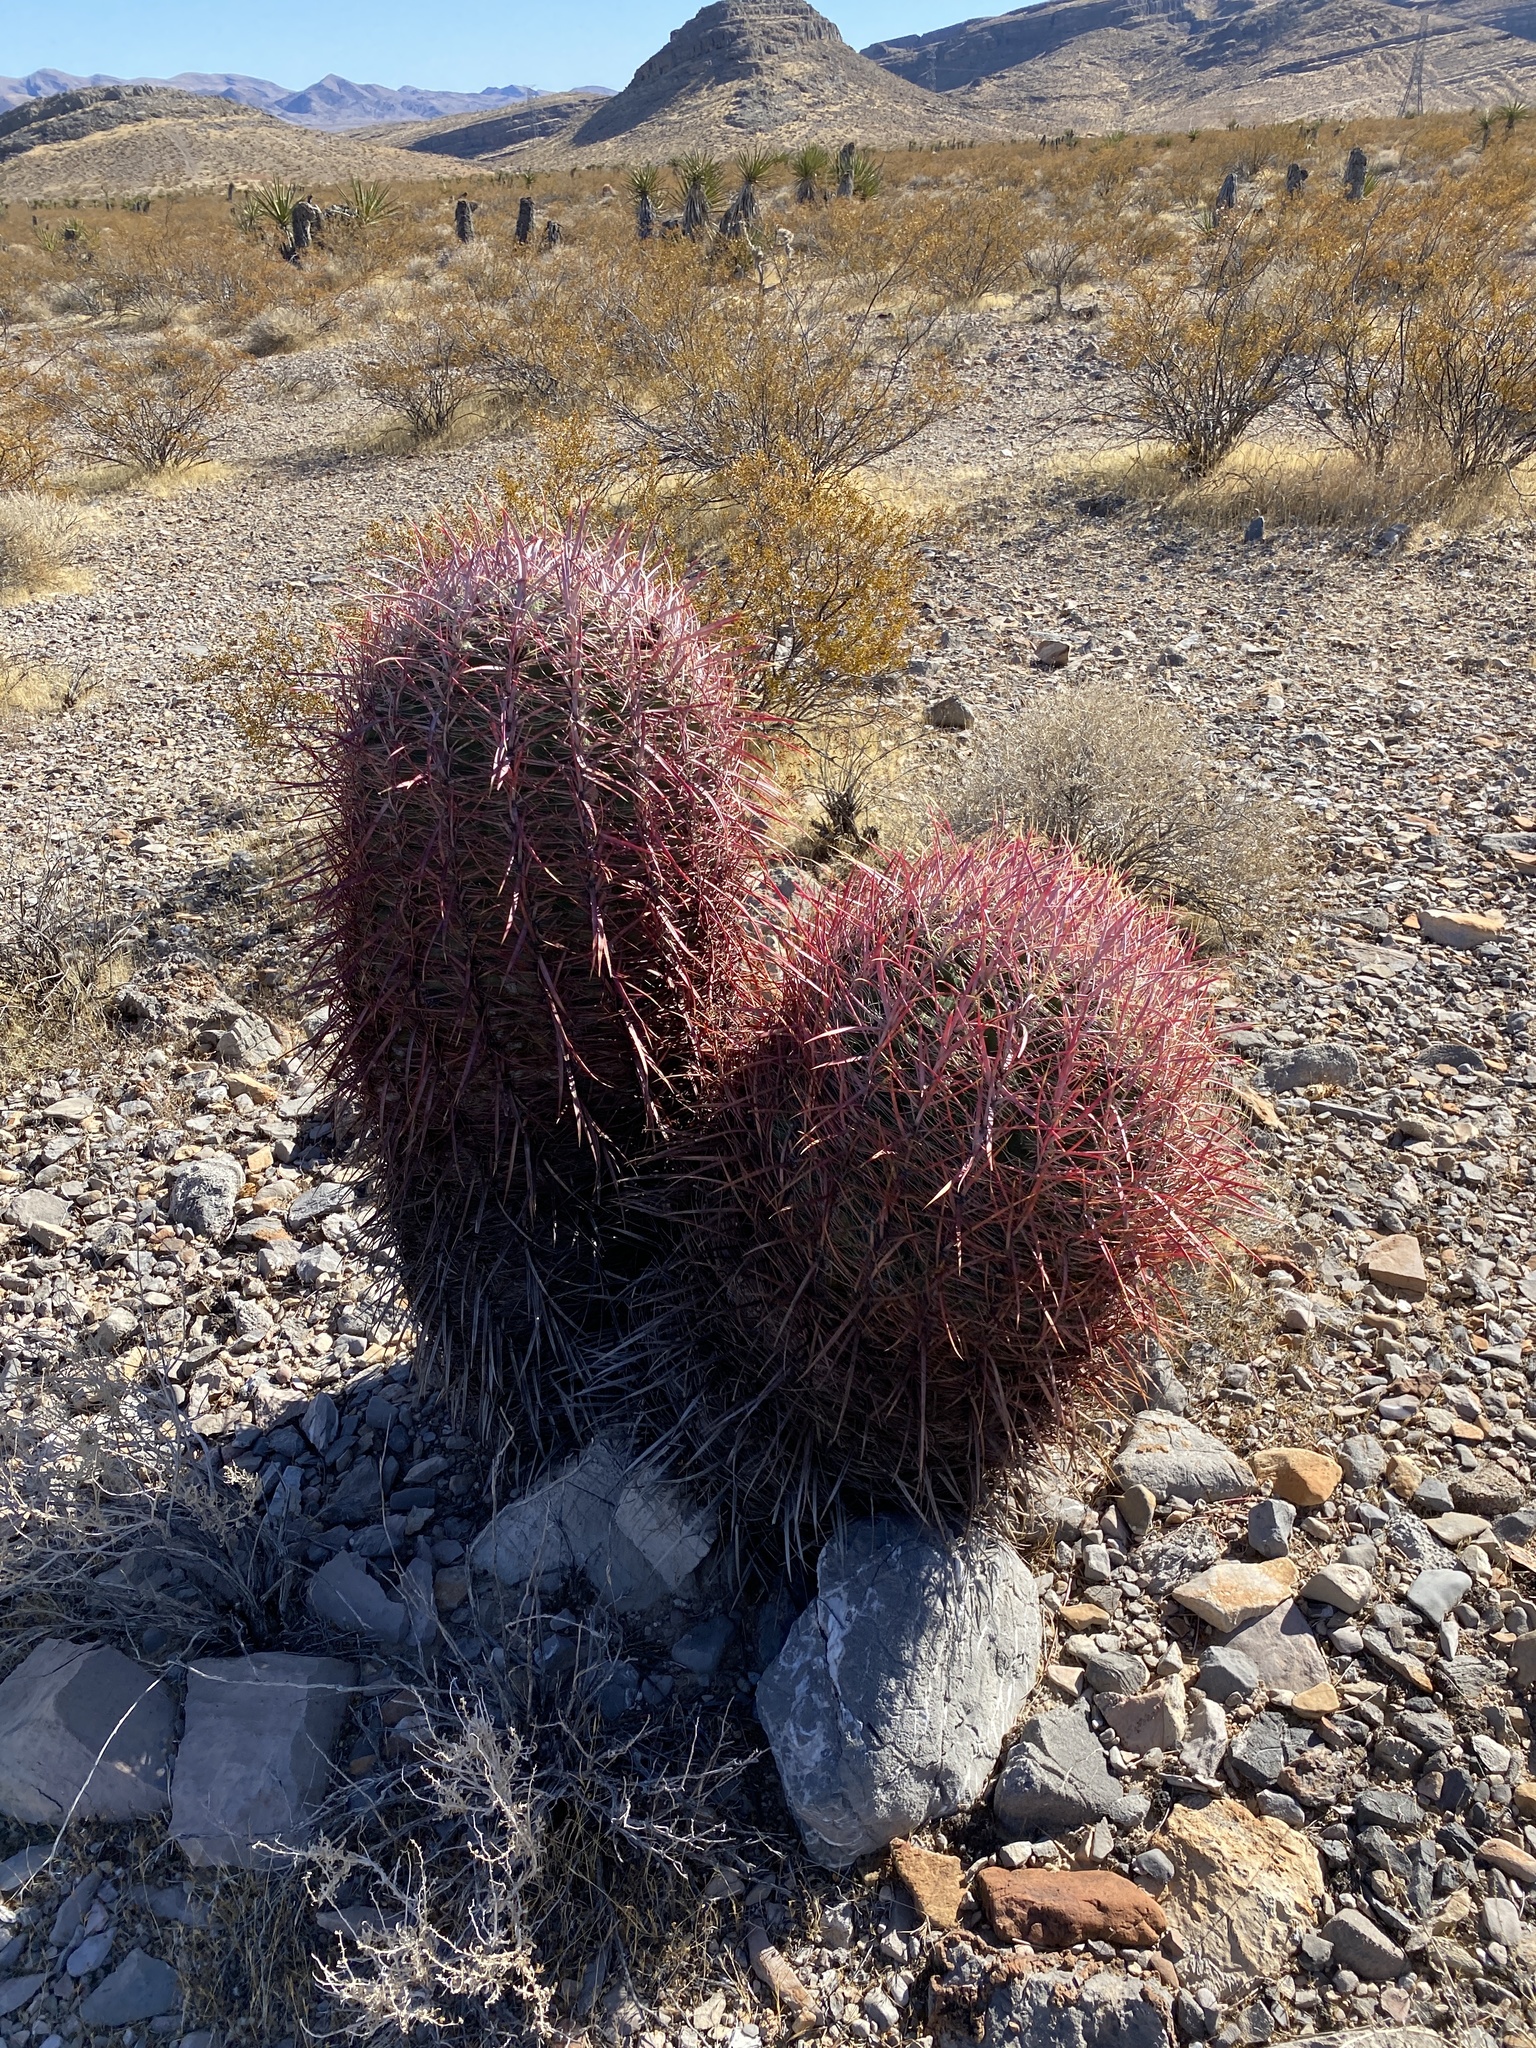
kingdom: Plantae
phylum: Tracheophyta
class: Magnoliopsida
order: Caryophyllales
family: Cactaceae
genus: Ferocactus
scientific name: Ferocactus cylindraceus
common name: California barrel cactus
